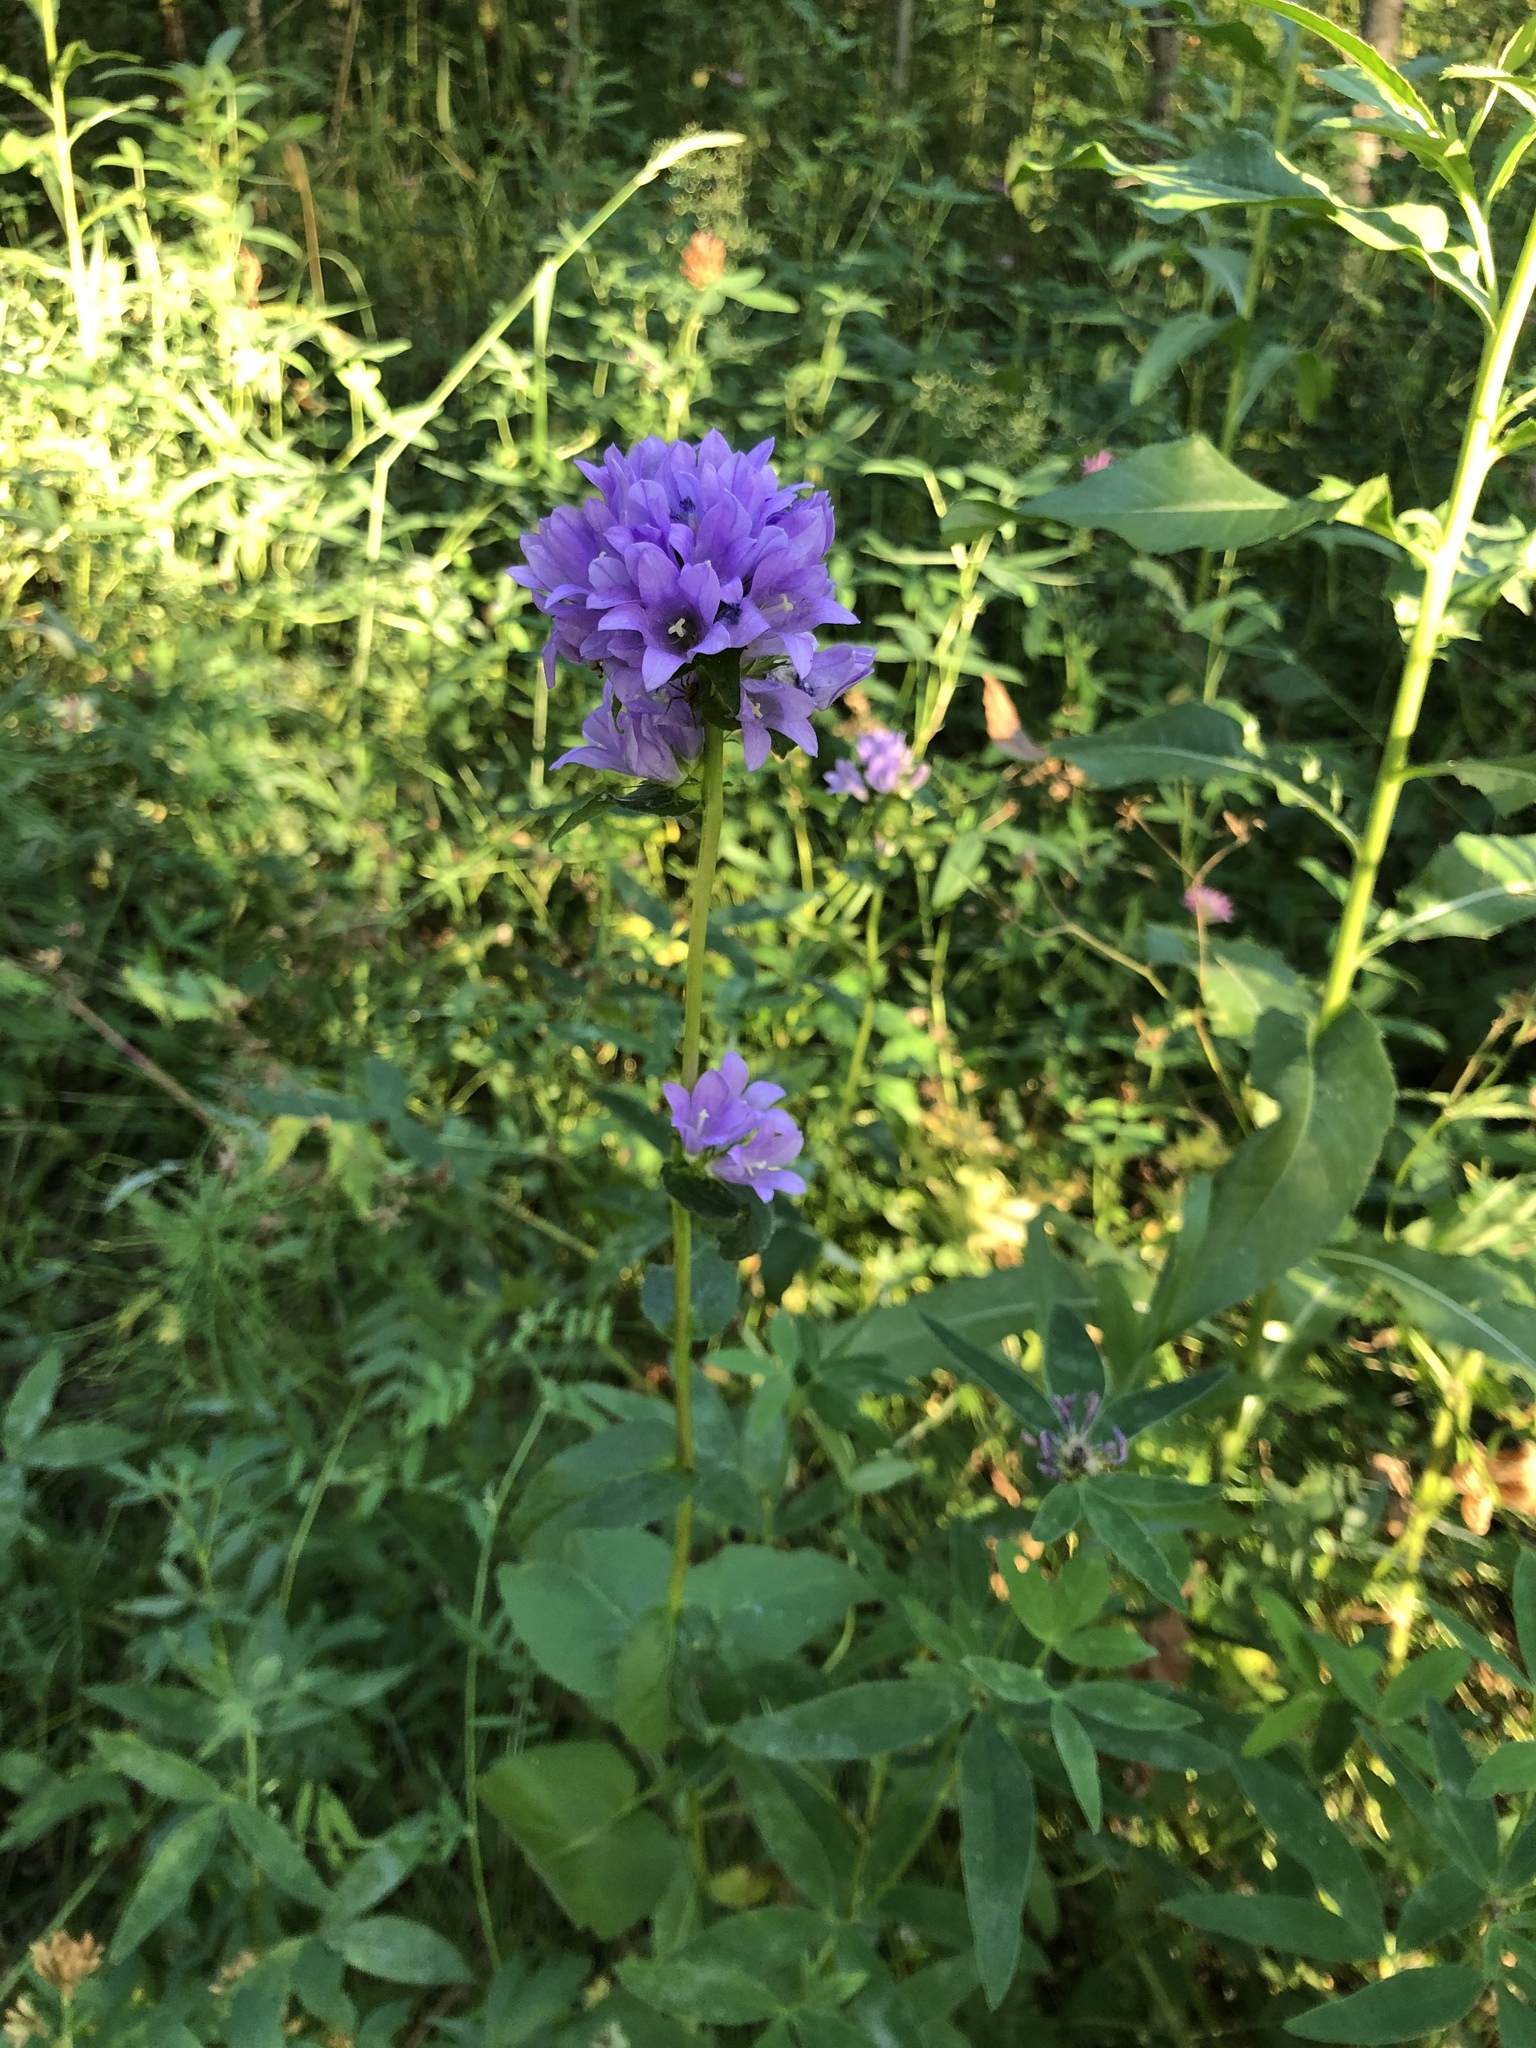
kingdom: Plantae
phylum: Tracheophyta
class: Magnoliopsida
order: Asterales
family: Campanulaceae
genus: Campanula
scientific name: Campanula glomerata
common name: Clustered bellflower
